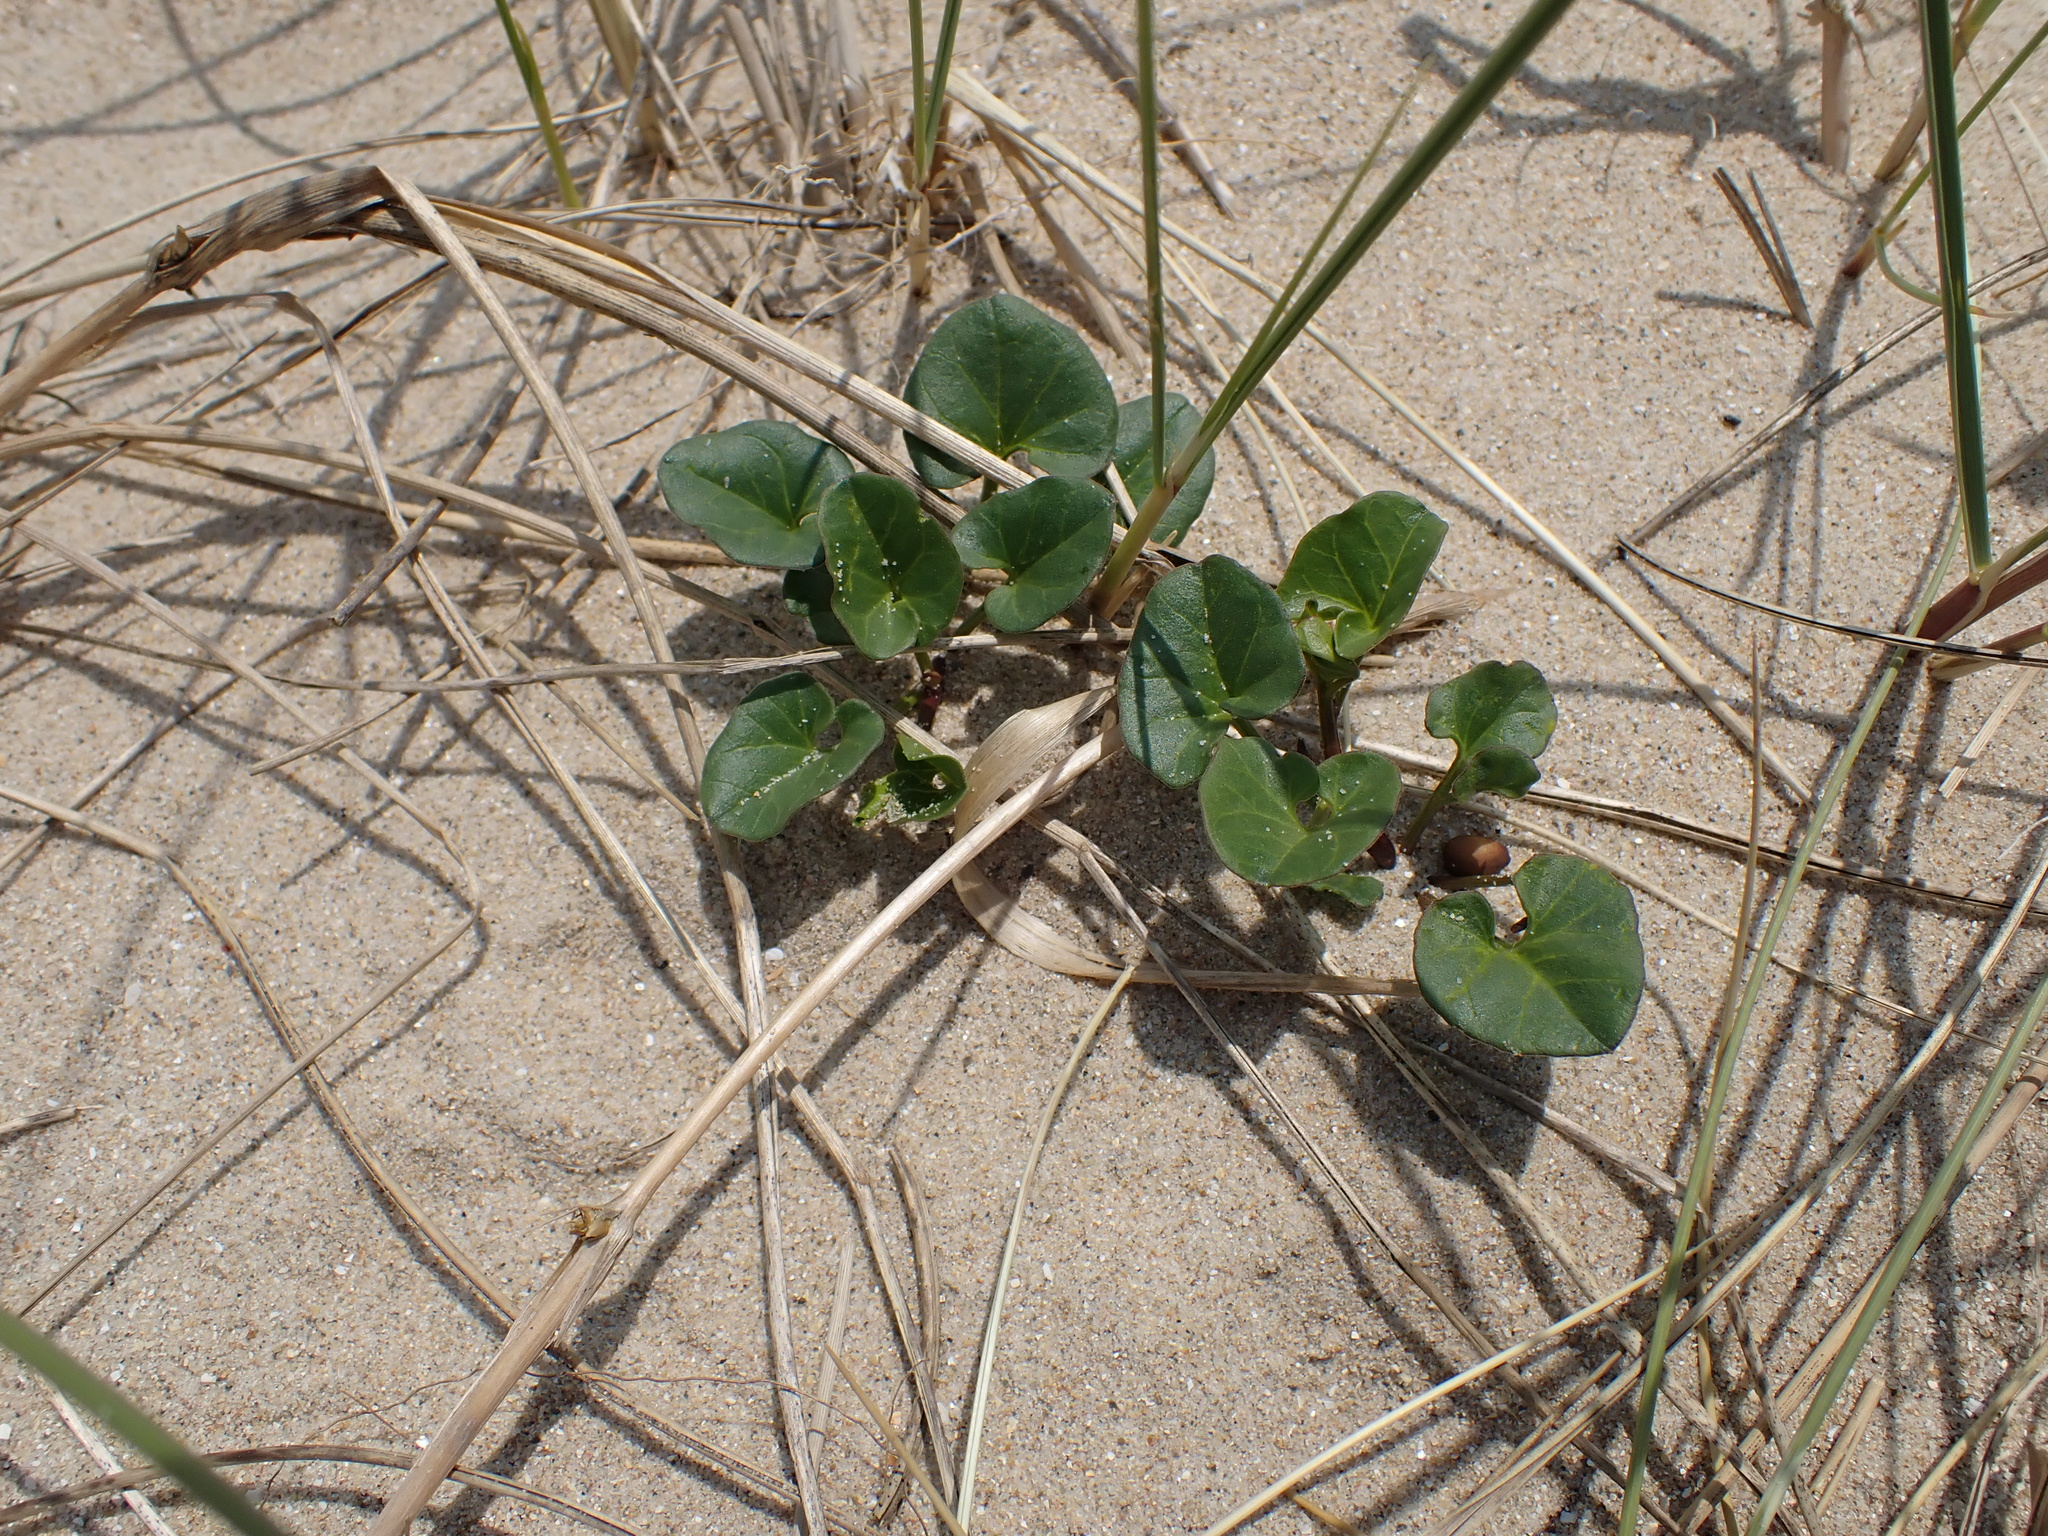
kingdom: Plantae
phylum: Tracheophyta
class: Magnoliopsida
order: Solanales
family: Convolvulaceae
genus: Calystegia
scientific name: Calystegia soldanella
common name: Sea bindweed
